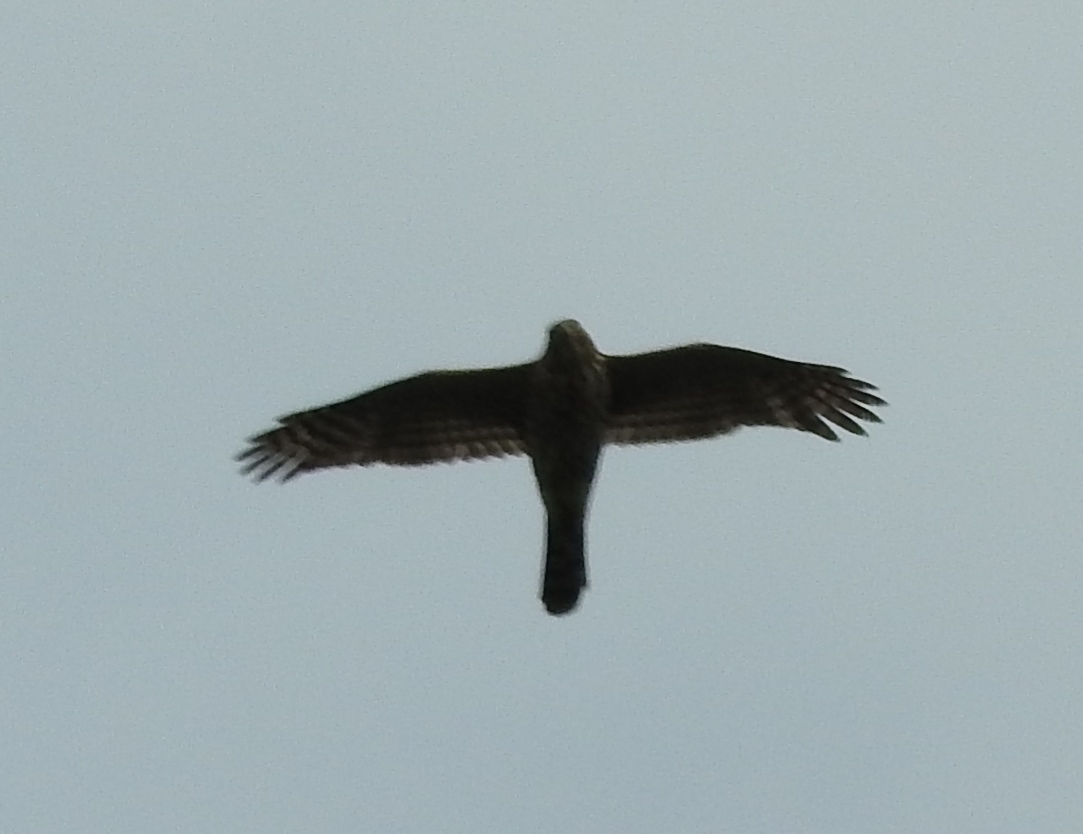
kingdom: Animalia
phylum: Chordata
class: Aves
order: Accipitriformes
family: Accipitridae
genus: Accipiter
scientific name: Accipiter cooperii
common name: Cooper's hawk
